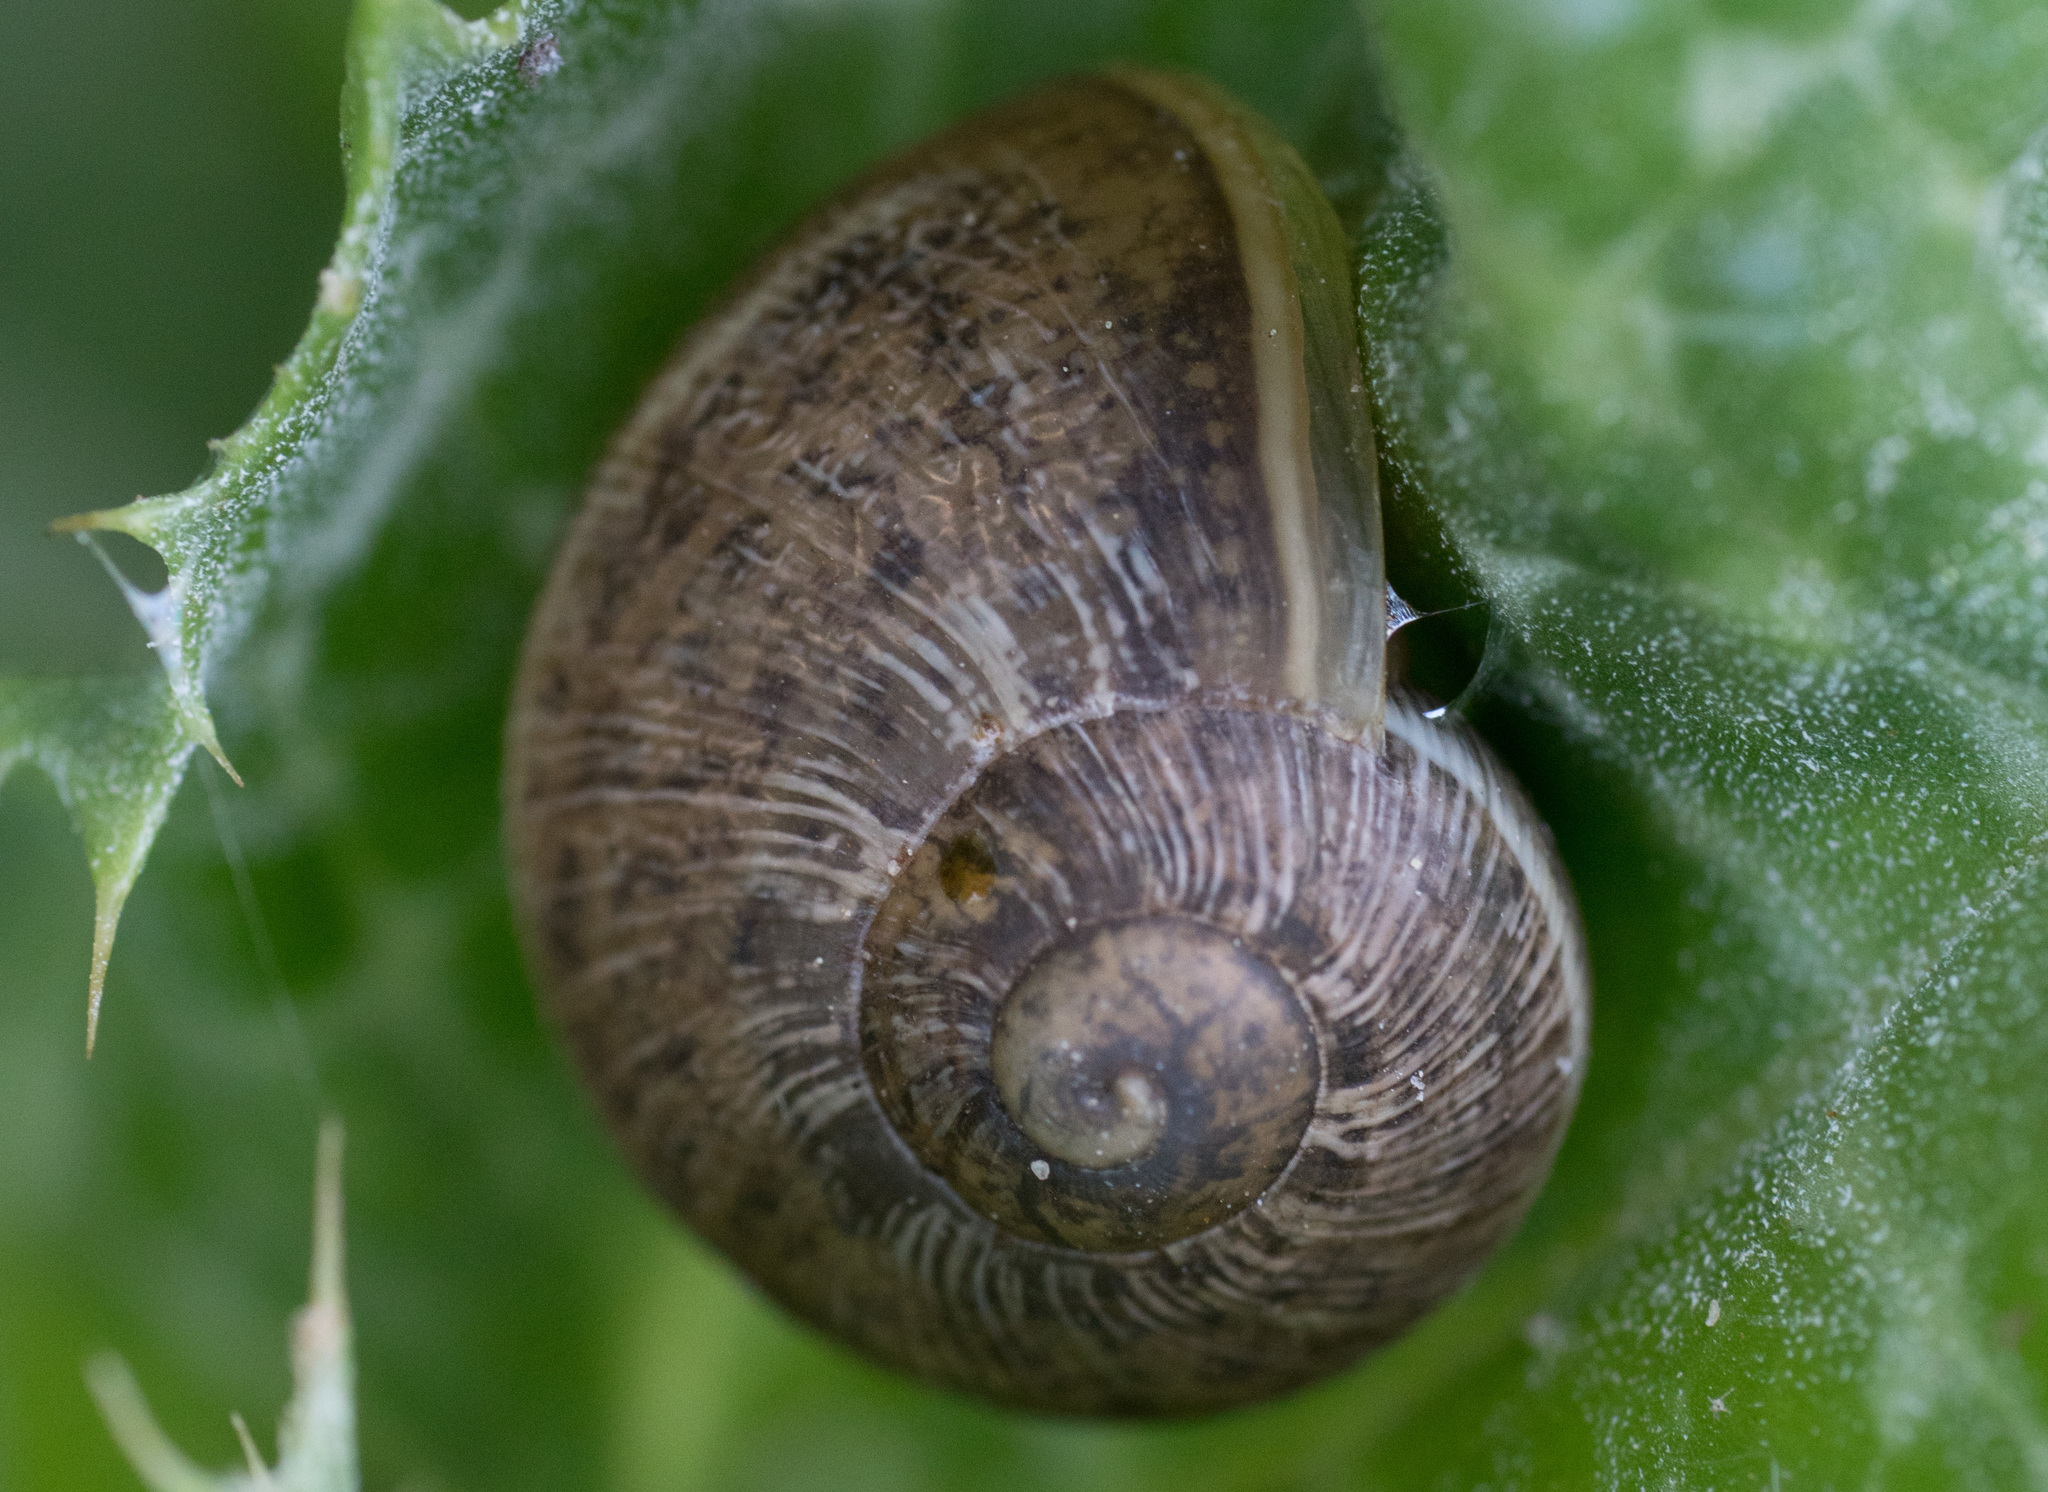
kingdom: Animalia
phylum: Mollusca
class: Gastropoda
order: Stylommatophora
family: Helicidae
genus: Cornu
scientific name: Cornu aspersum
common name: Brown garden snail
